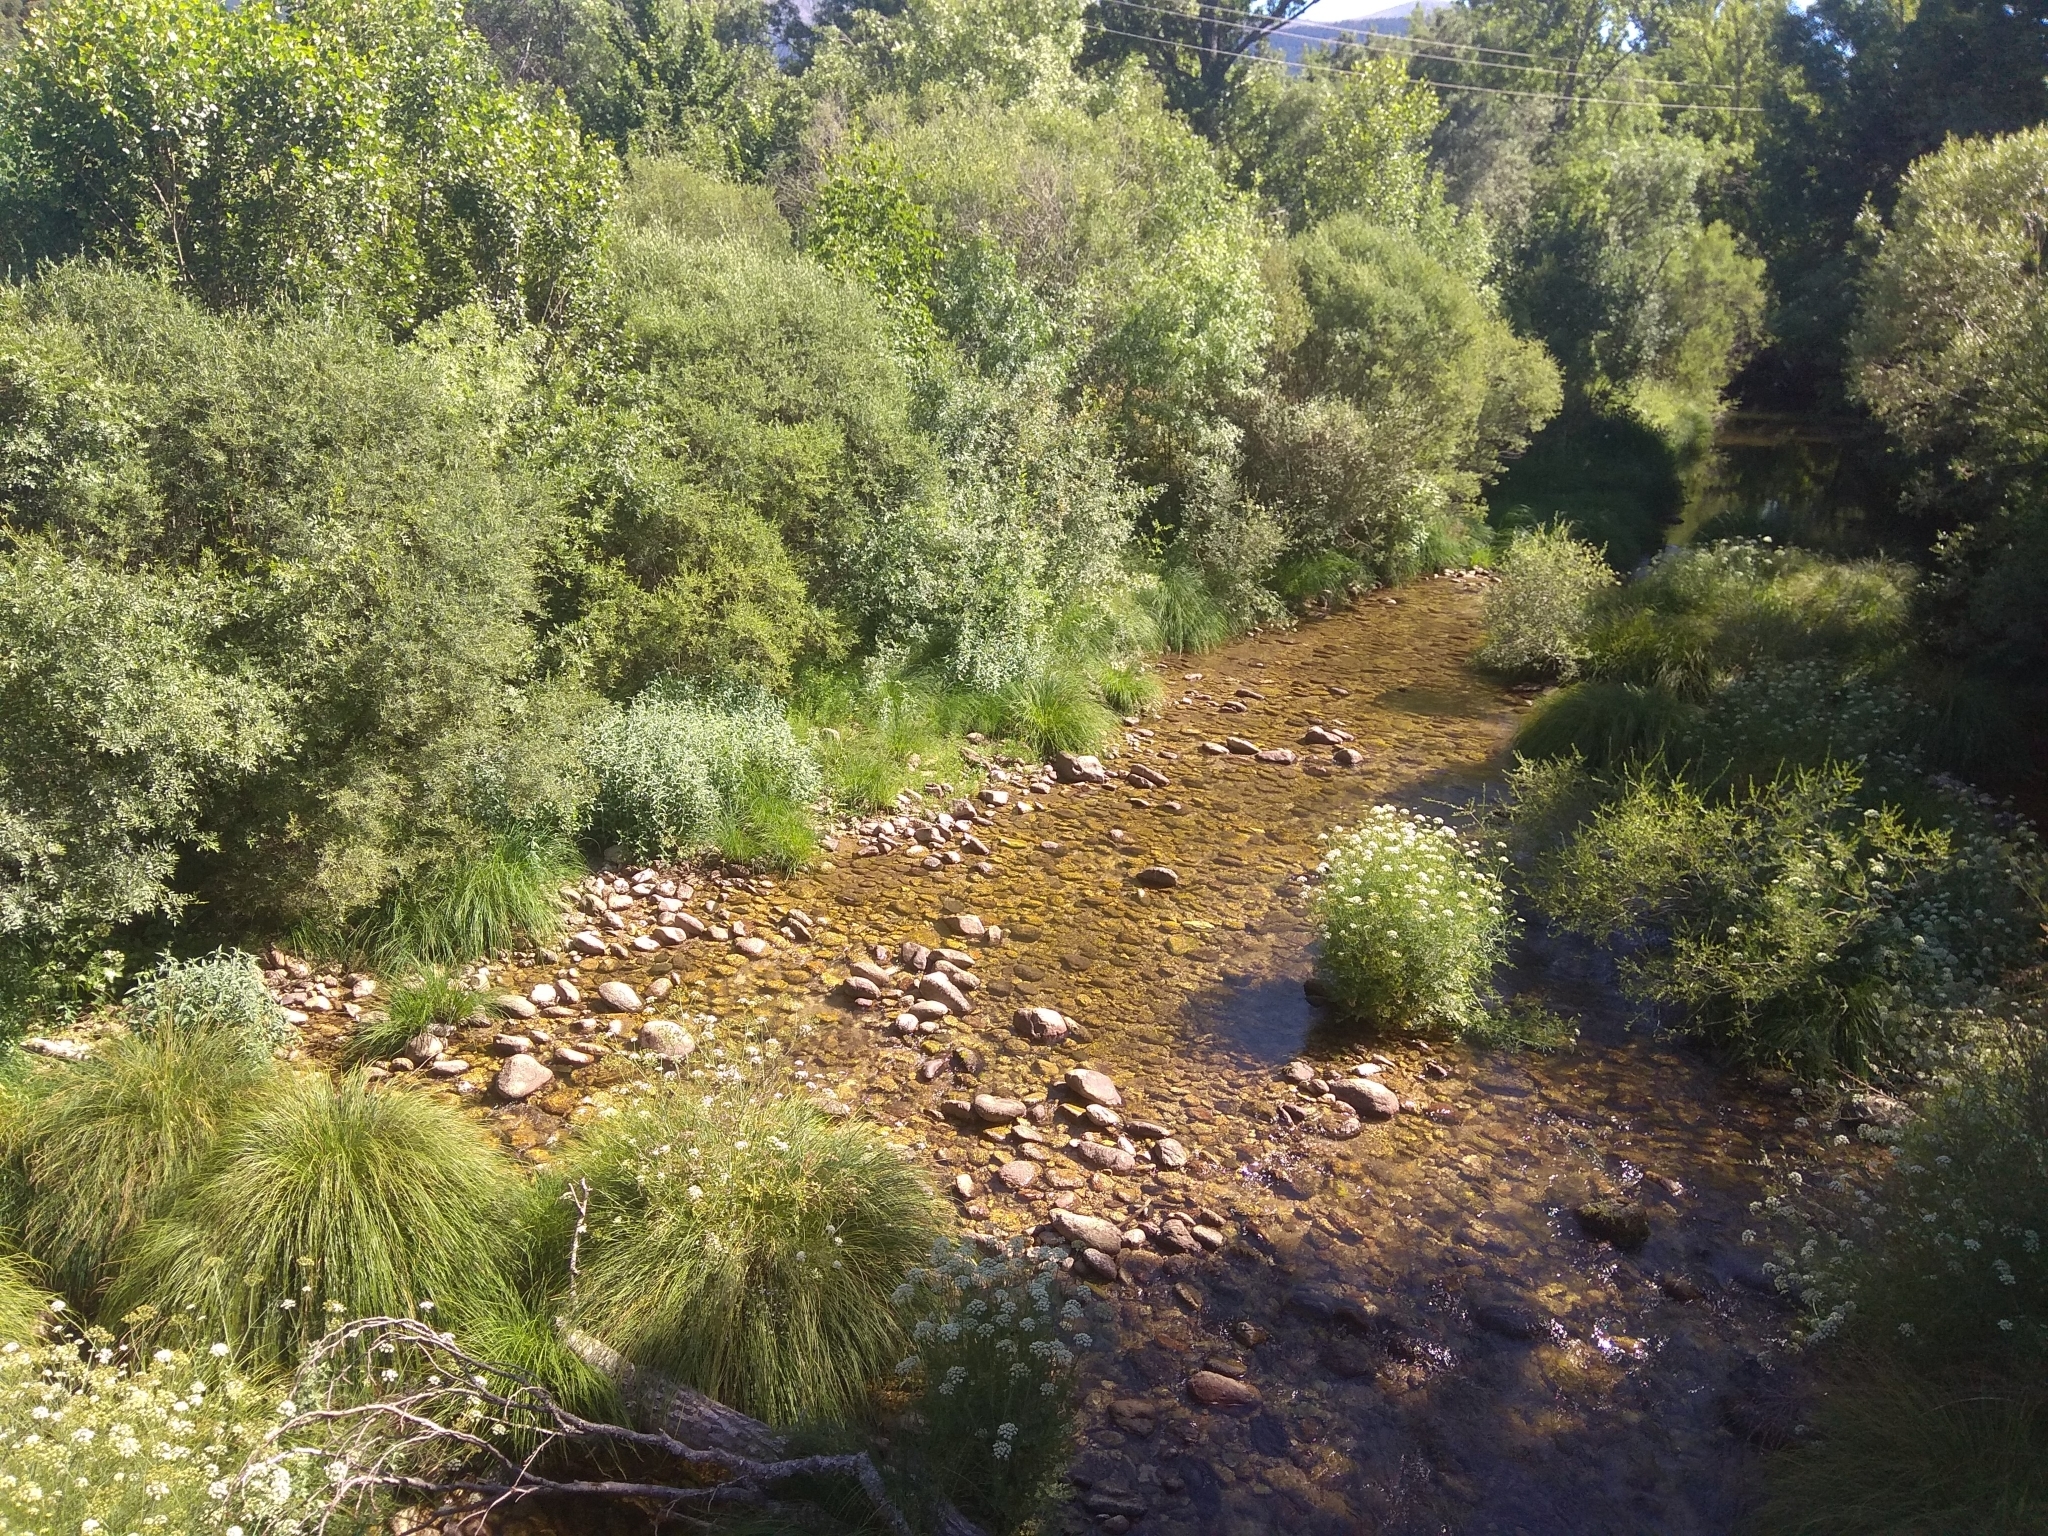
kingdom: Plantae
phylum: Tracheophyta
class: Liliopsida
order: Poales
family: Cyperaceae
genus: Carex
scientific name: Carex reuteriana
